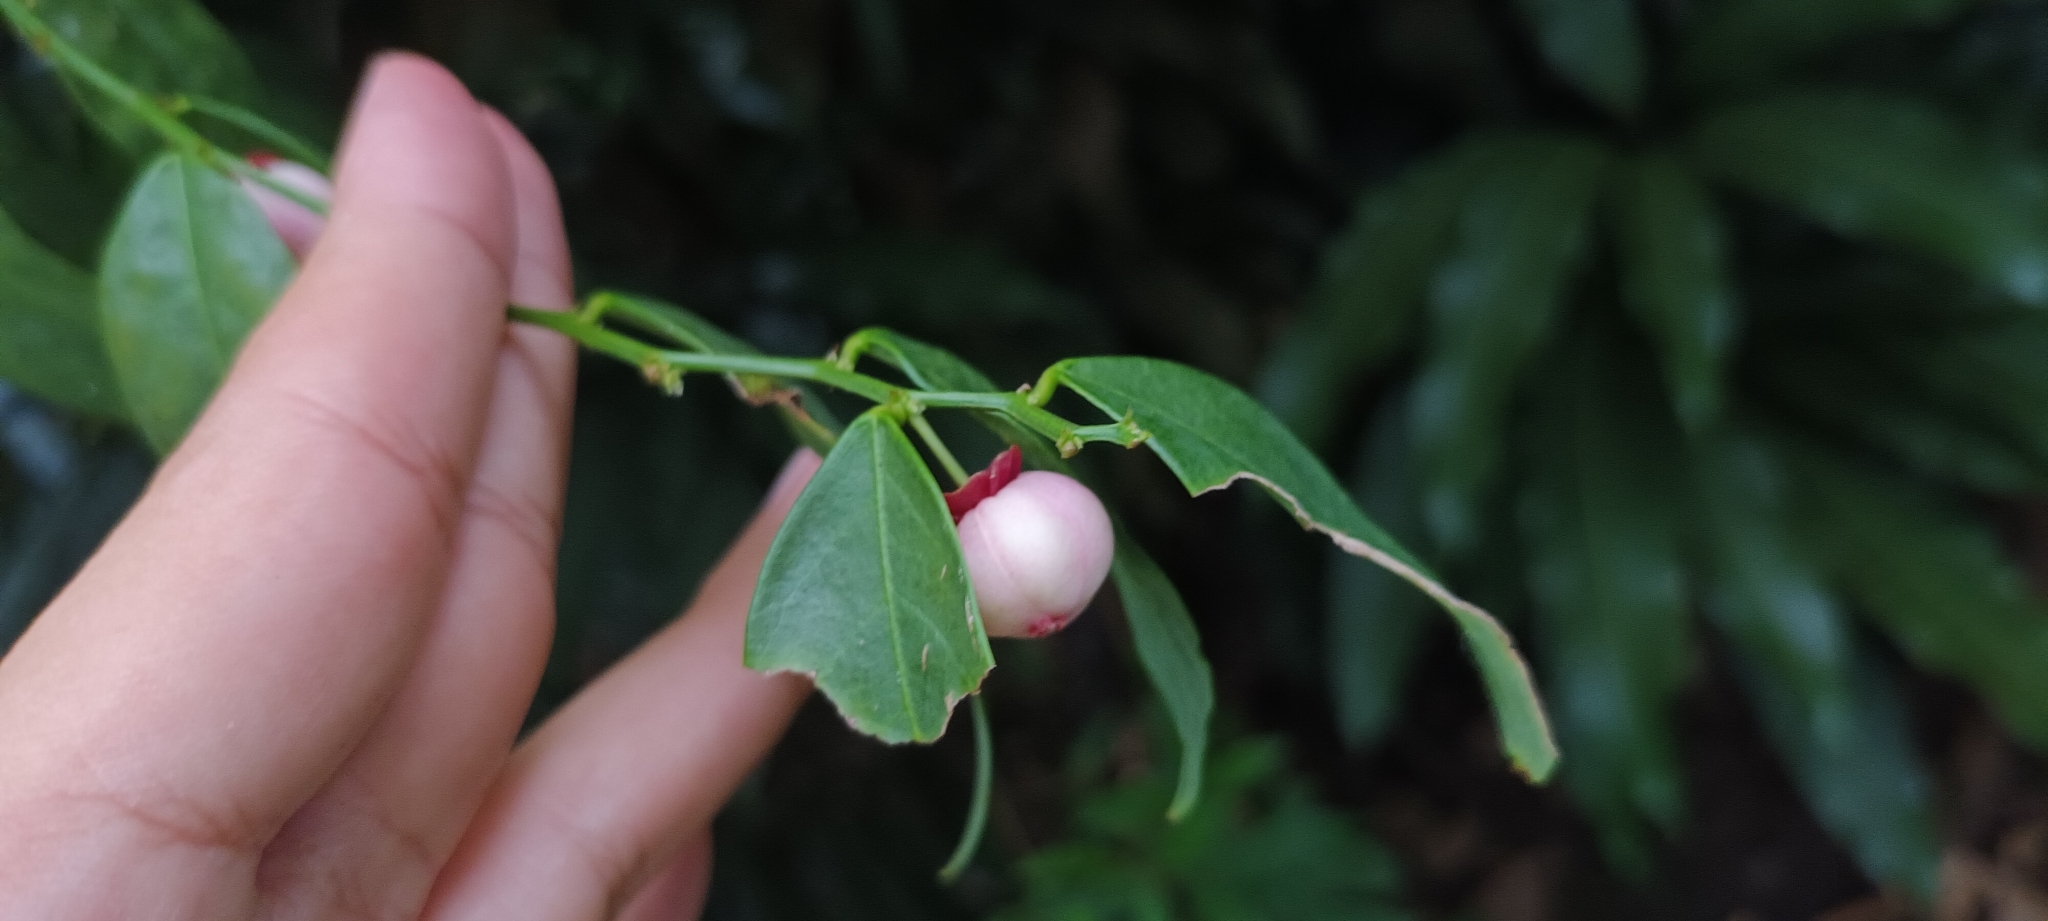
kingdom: Plantae
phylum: Tracheophyta
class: Magnoliopsida
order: Malpighiales
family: Phyllanthaceae
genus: Breynia
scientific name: Breynia androgyna
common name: Star gooseberry
